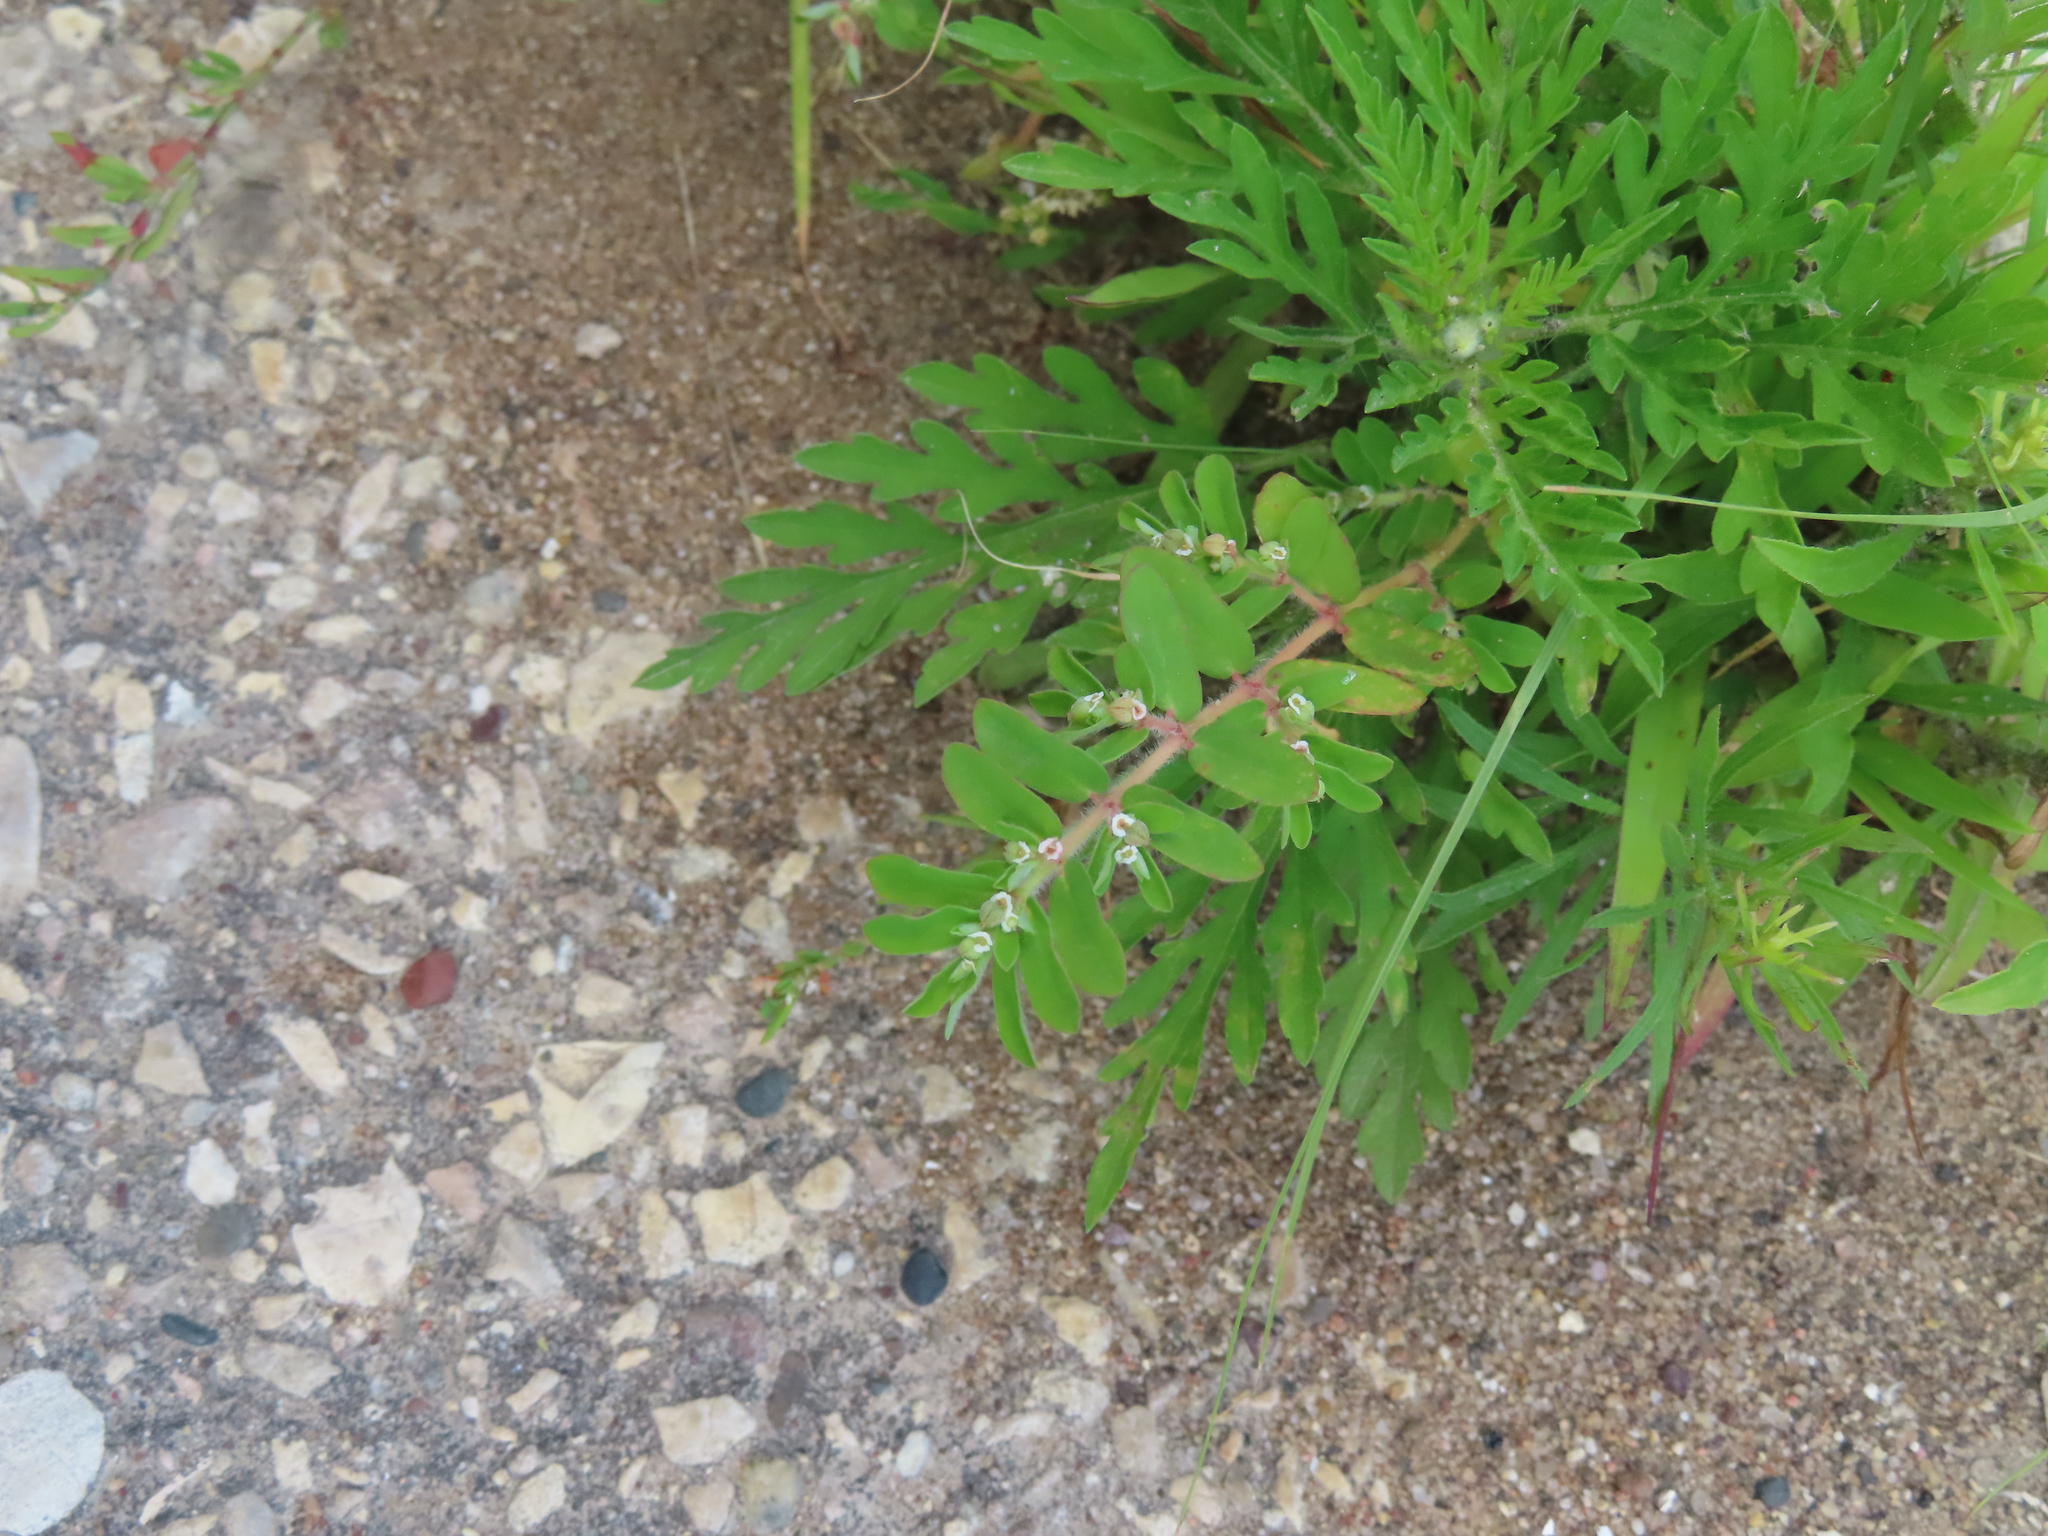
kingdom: Plantae
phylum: Tracheophyta
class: Magnoliopsida
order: Malpighiales
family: Euphorbiaceae
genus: Euphorbia
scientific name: Euphorbia maculata
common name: Spotted spurge
